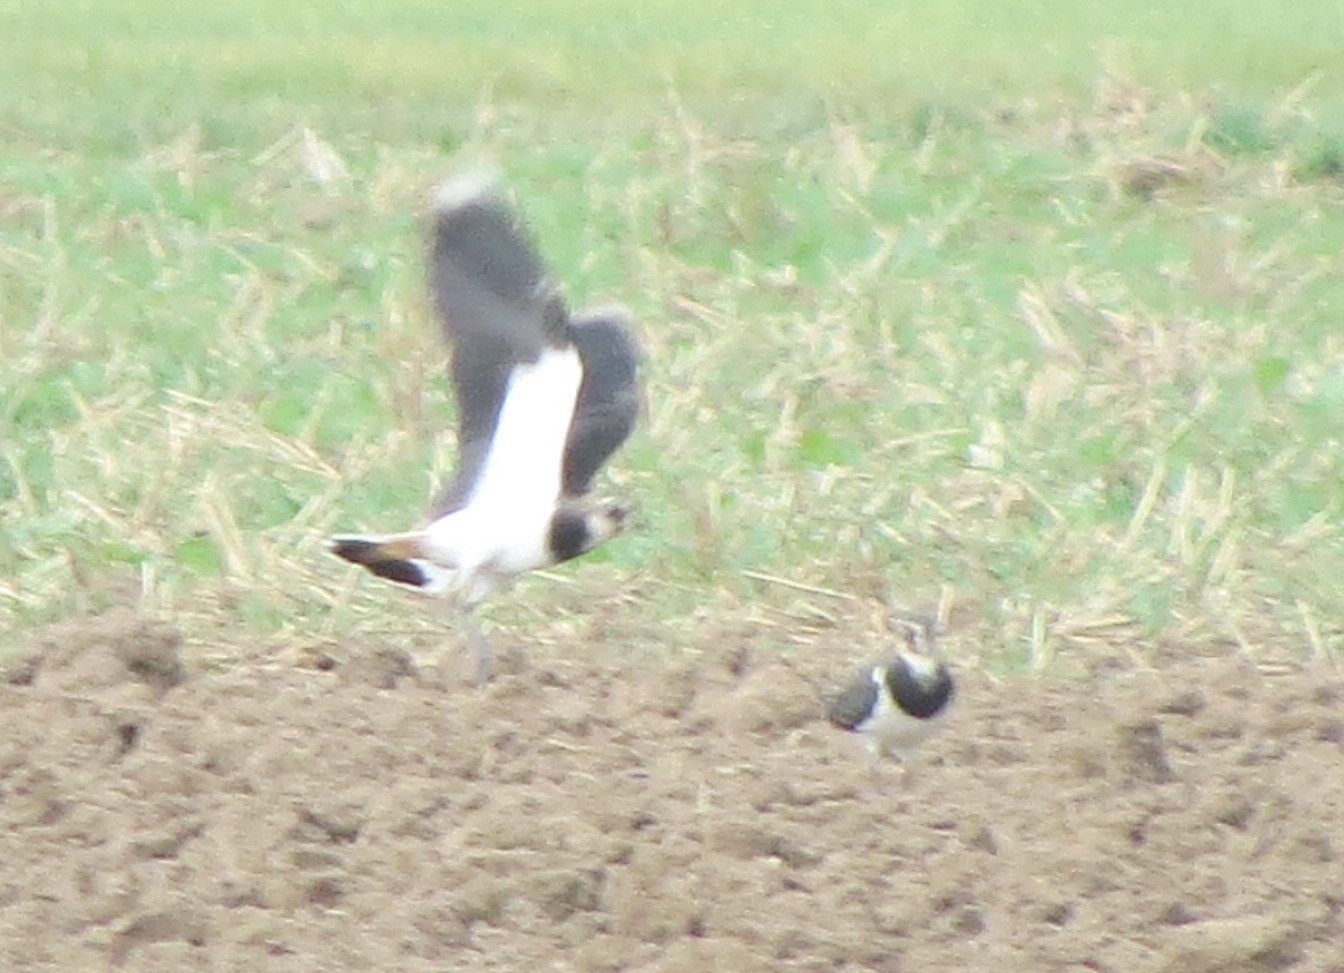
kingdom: Animalia
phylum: Chordata
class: Aves
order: Charadriiformes
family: Charadriidae
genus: Vanellus
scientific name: Vanellus vanellus
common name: Northern lapwing
